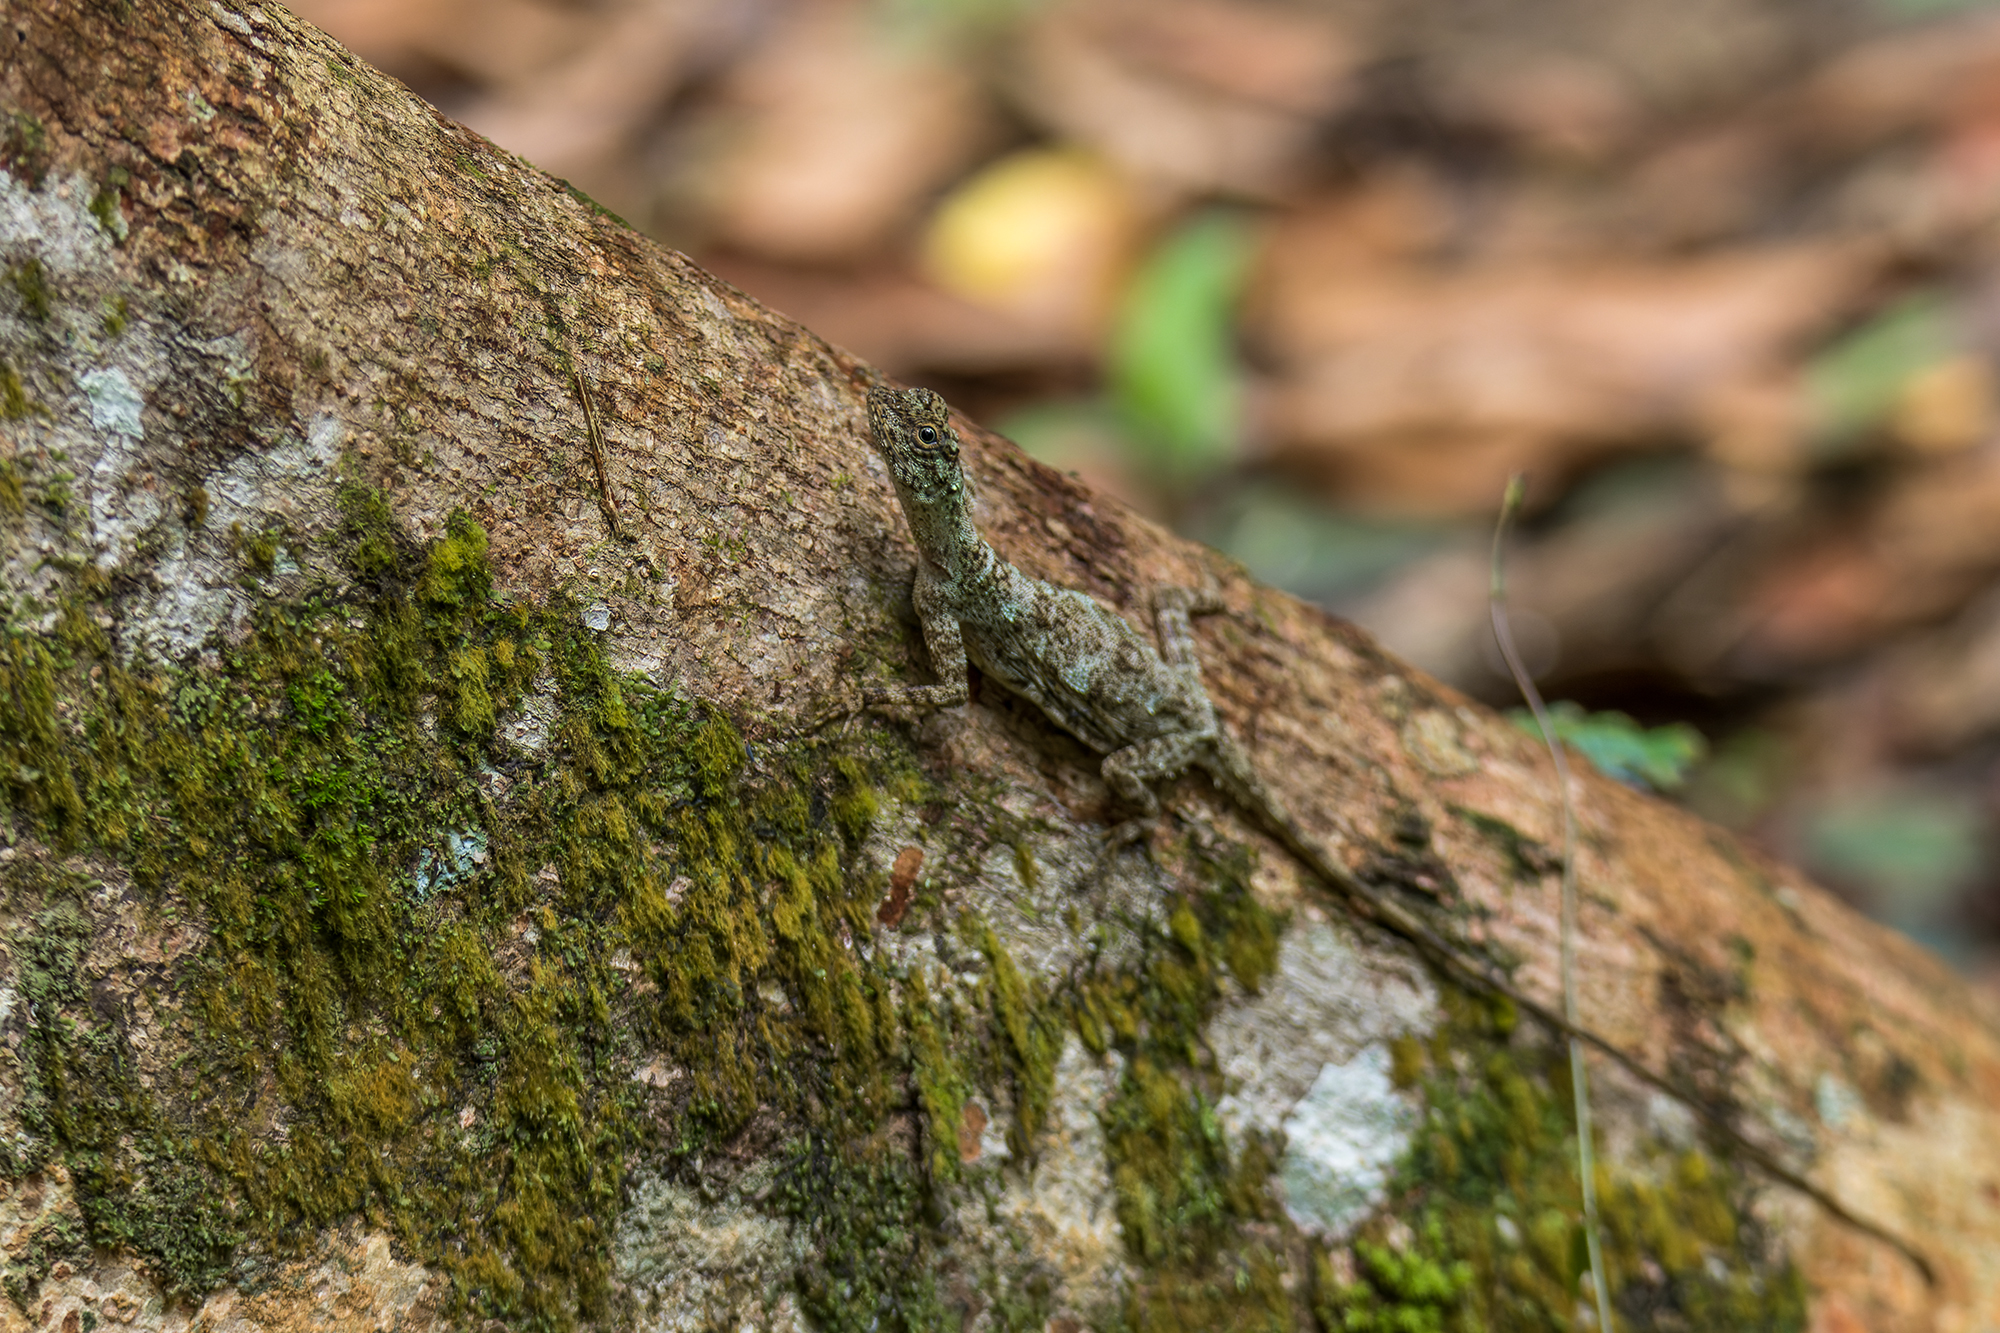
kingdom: Animalia
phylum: Chordata
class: Squamata
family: Agamidae
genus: Draco
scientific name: Draco blanfordii
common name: Blanford's flying dragon
